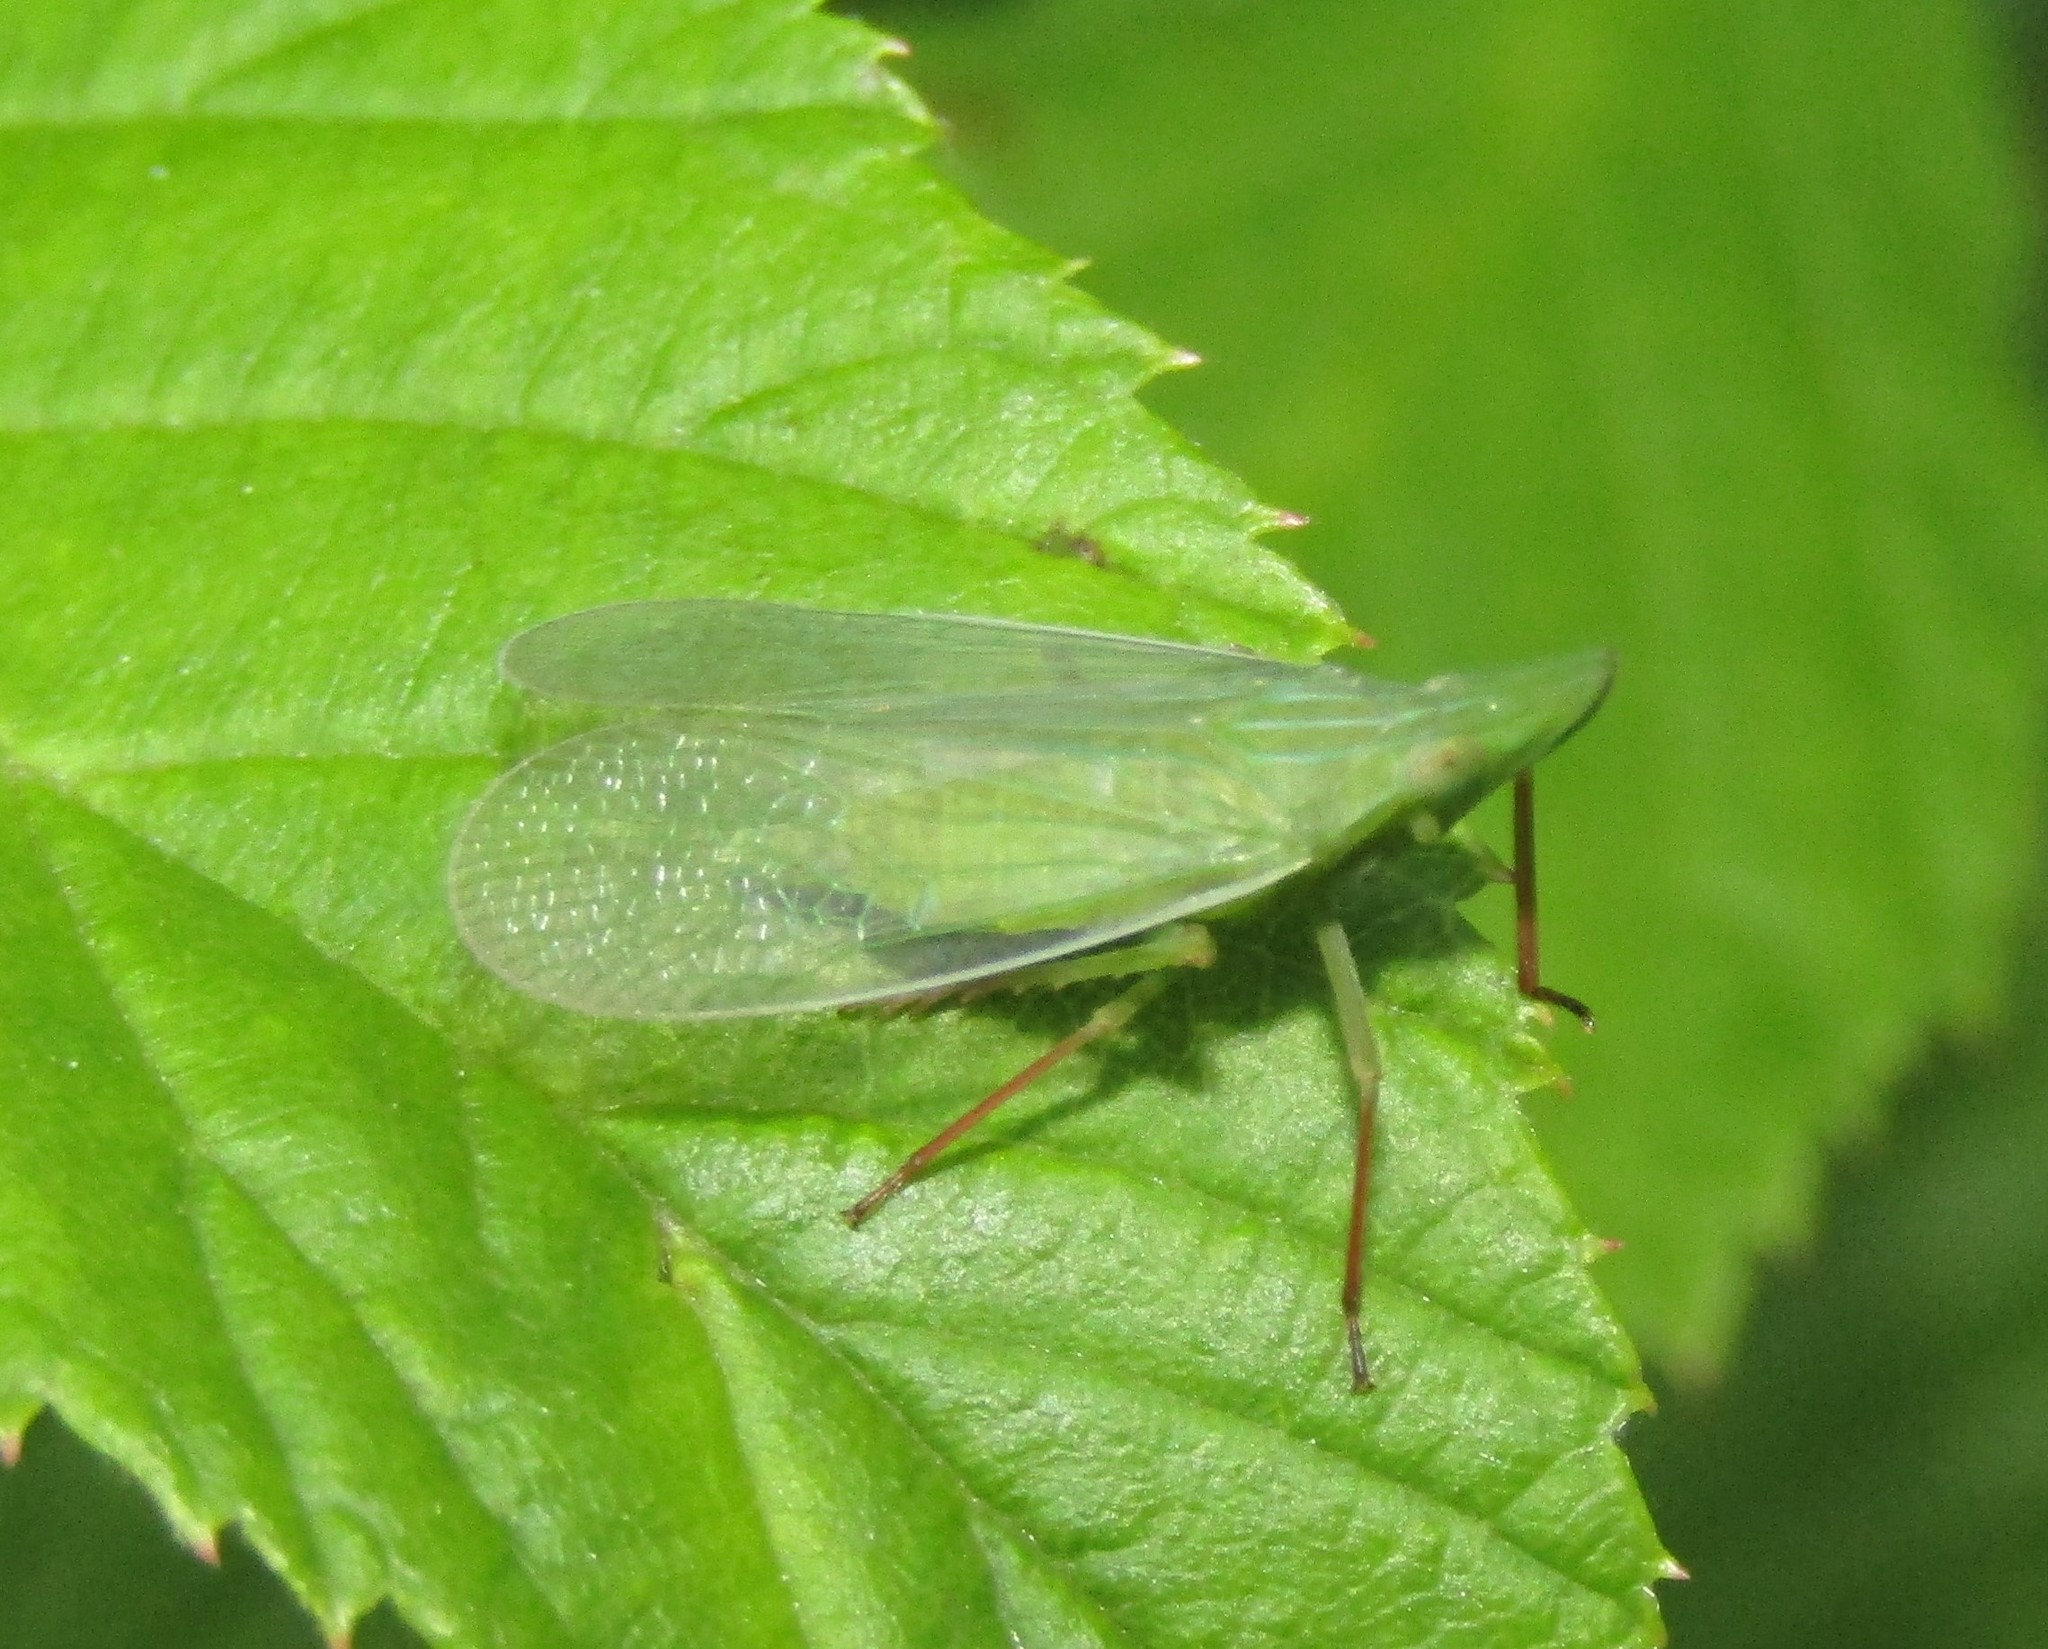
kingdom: Animalia
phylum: Arthropoda
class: Insecta
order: Hemiptera
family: Dictyopharidae
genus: Rhynchomitra
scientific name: Rhynchomitra recurva
